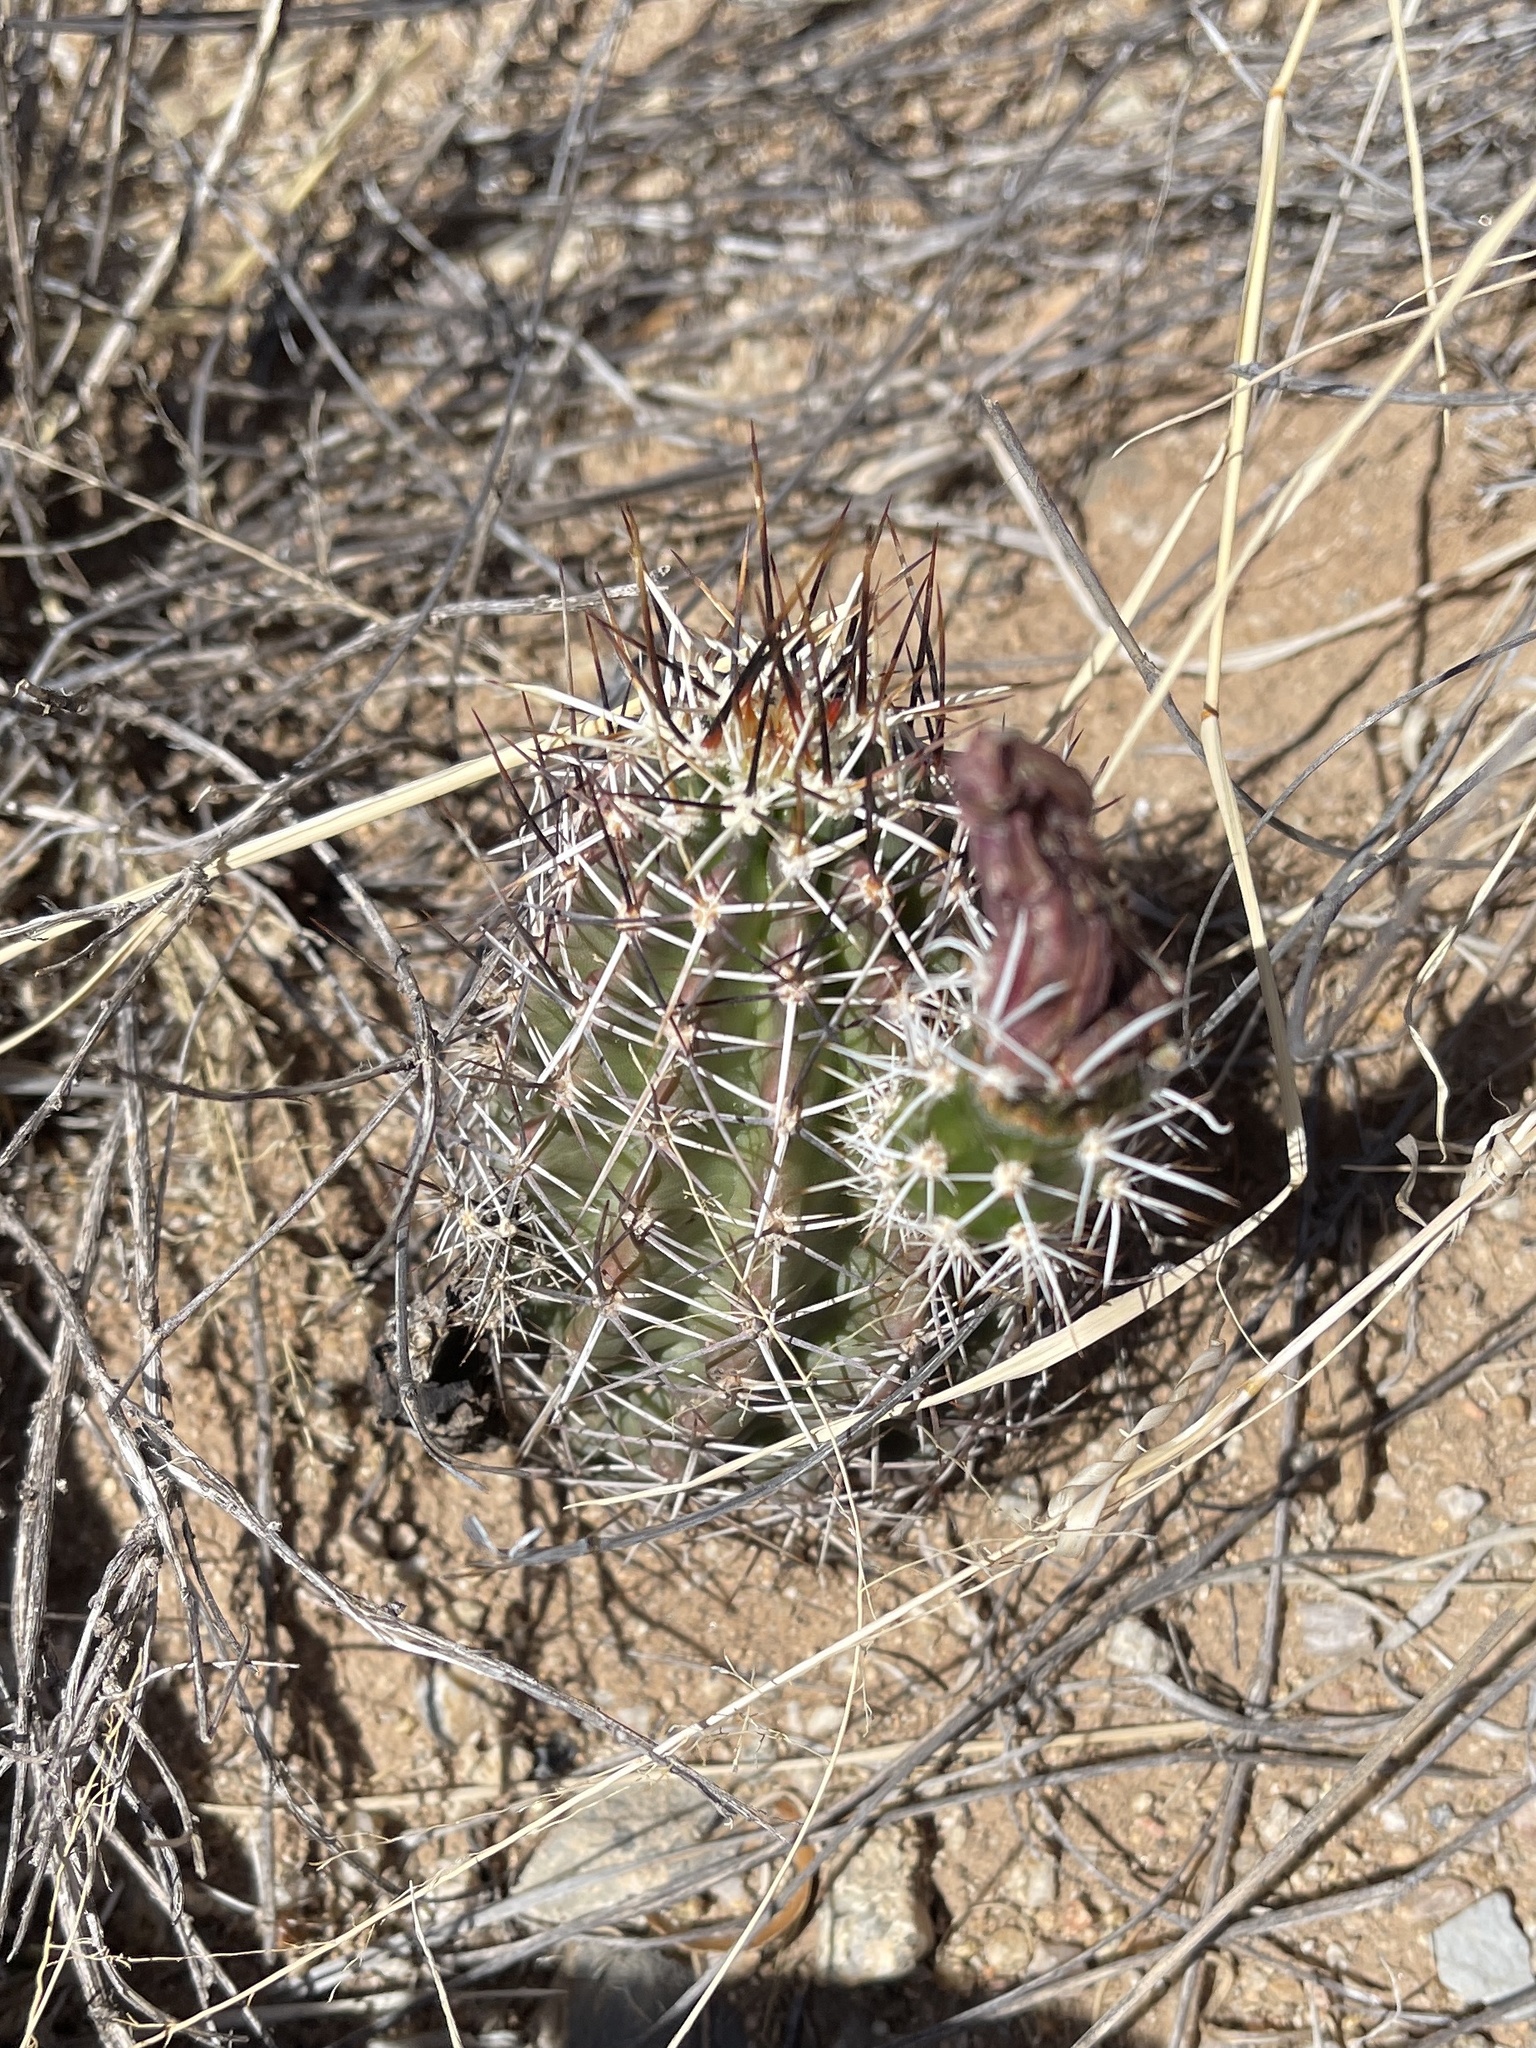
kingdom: Plantae
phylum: Tracheophyta
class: Magnoliopsida
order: Caryophyllales
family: Cactaceae
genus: Echinocereus
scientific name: Echinocereus fendleri
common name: Fendler's hedgehog cactus
